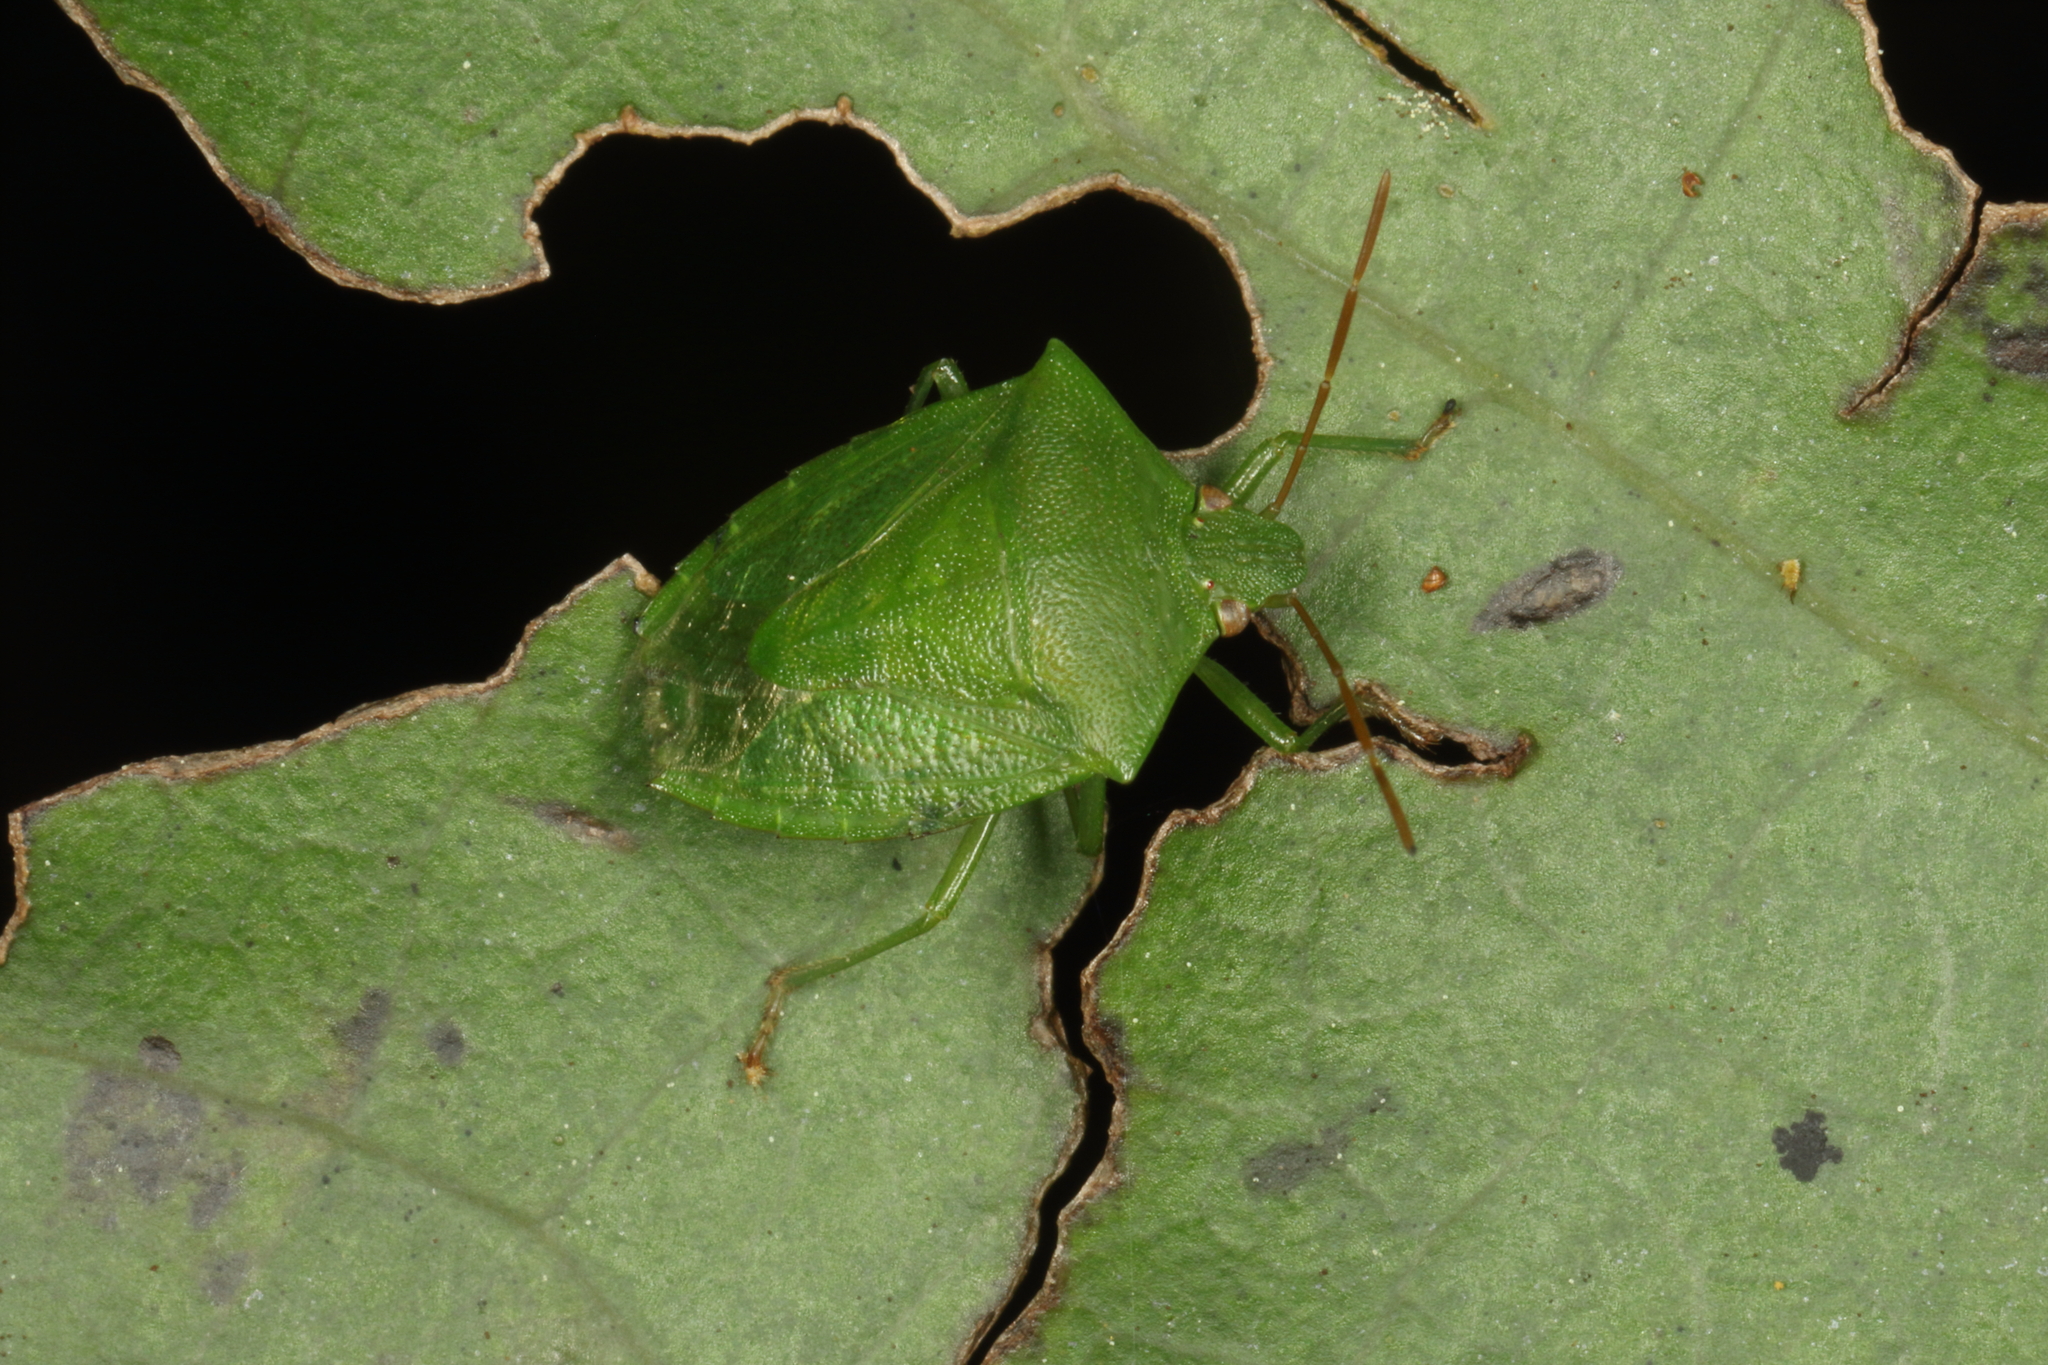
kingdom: Animalia
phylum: Arthropoda
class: Insecta
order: Hemiptera
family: Pentatomidae
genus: Cuspicona
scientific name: Cuspicona simplex
